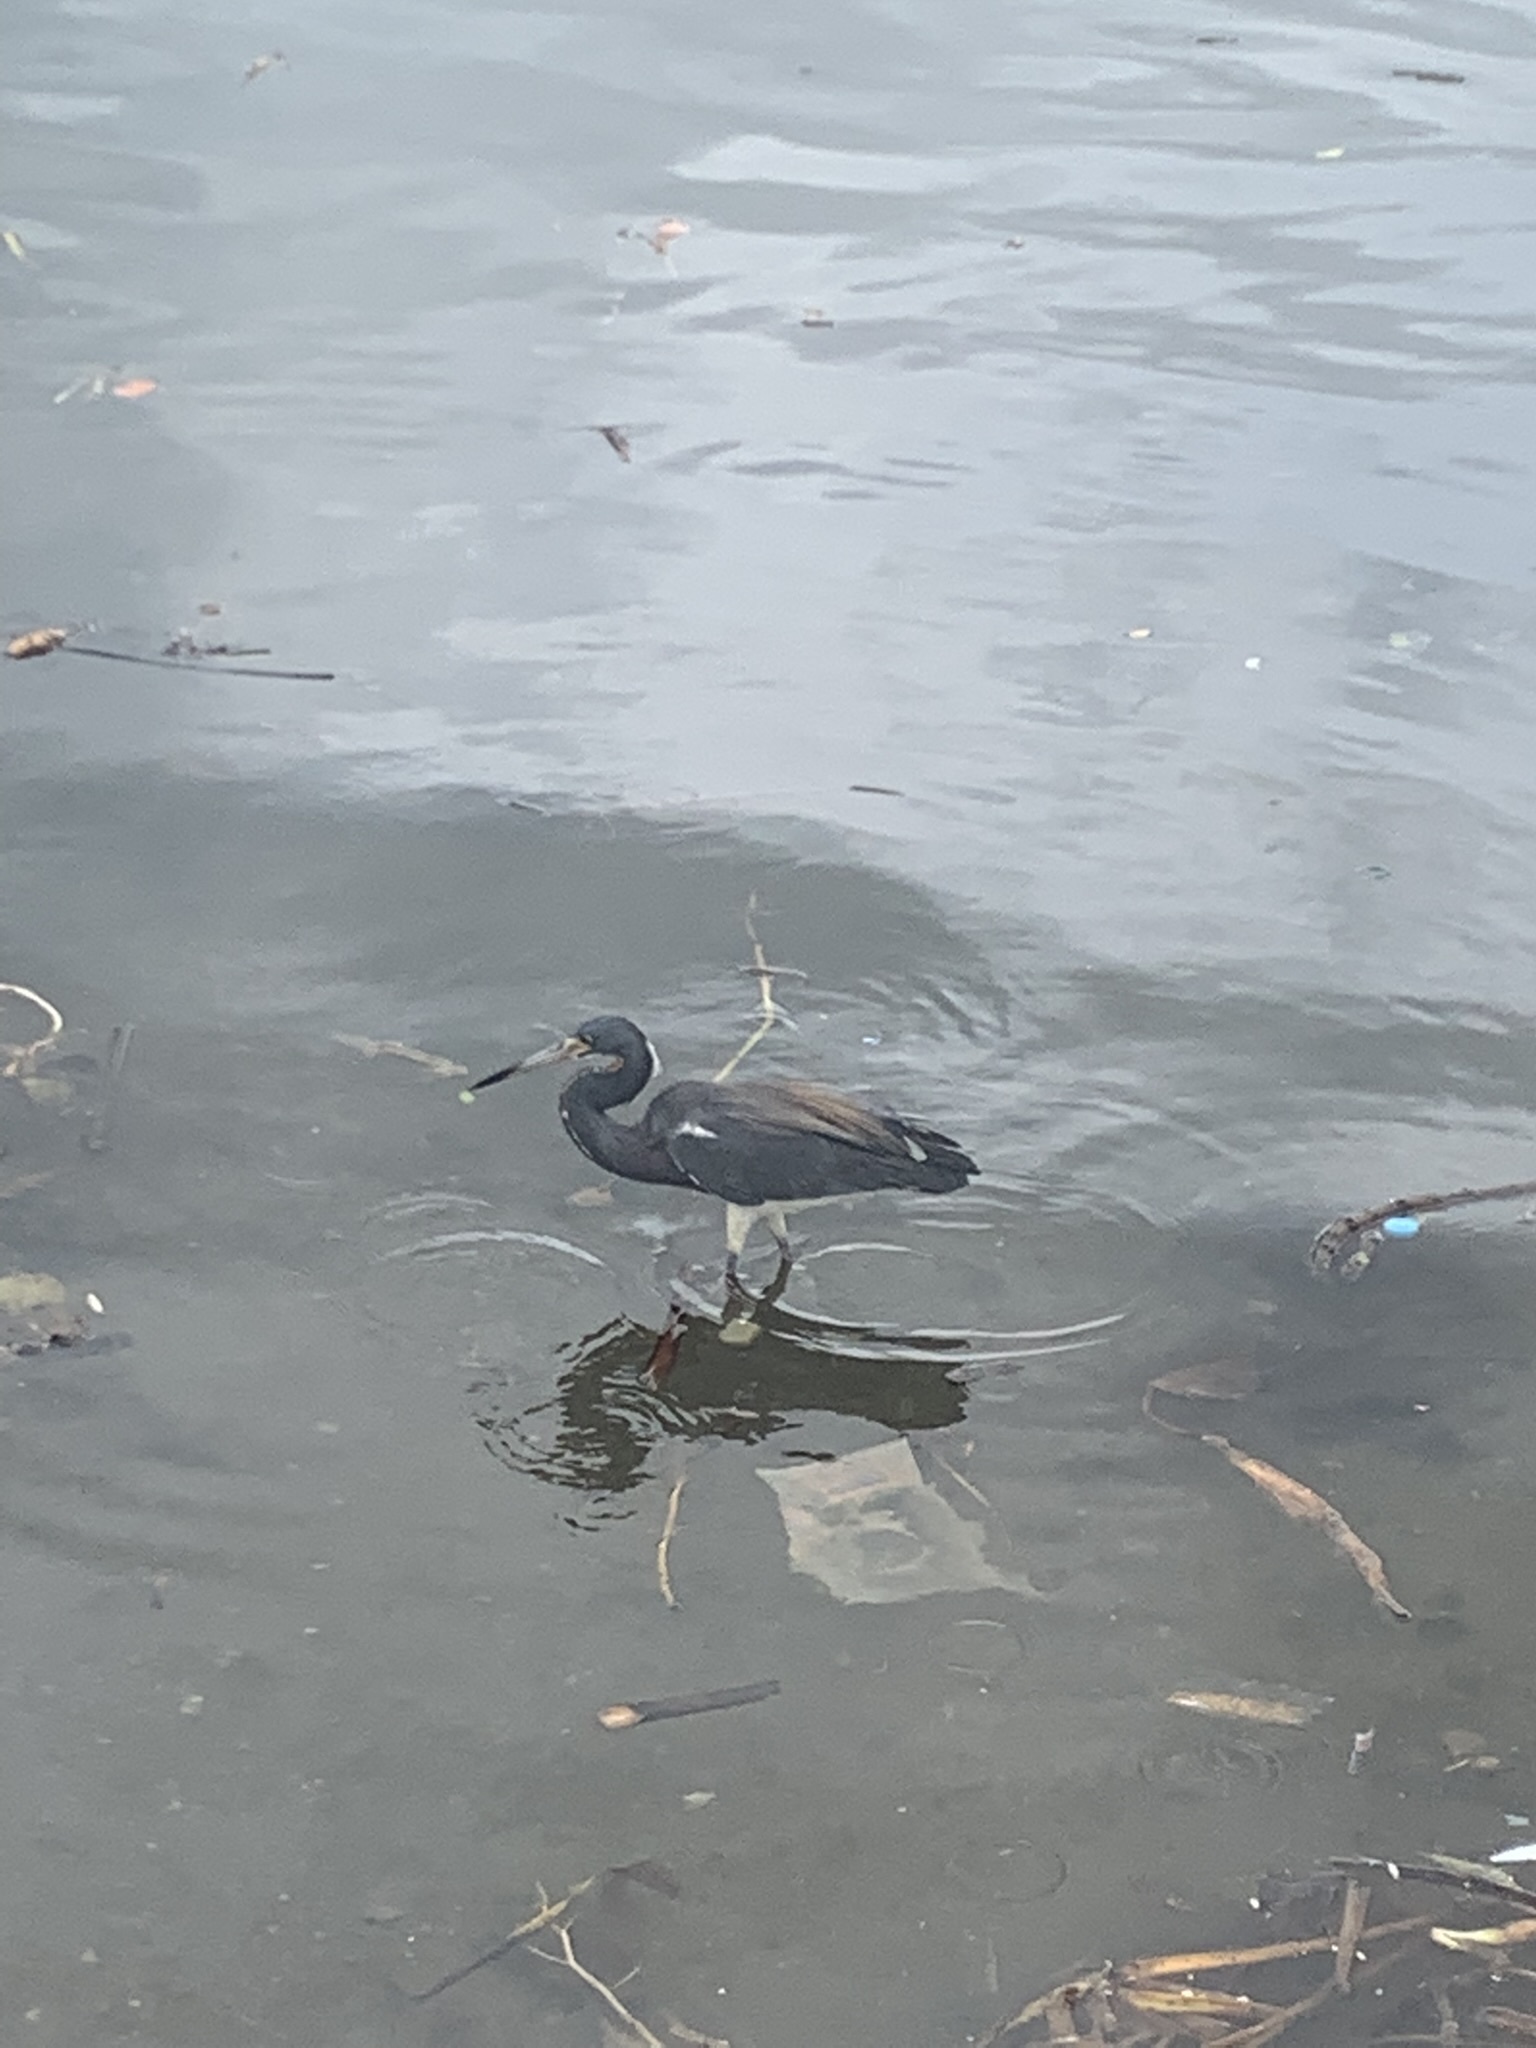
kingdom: Animalia
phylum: Chordata
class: Aves
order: Pelecaniformes
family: Ardeidae
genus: Egretta
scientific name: Egretta tricolor
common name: Tricolored heron
